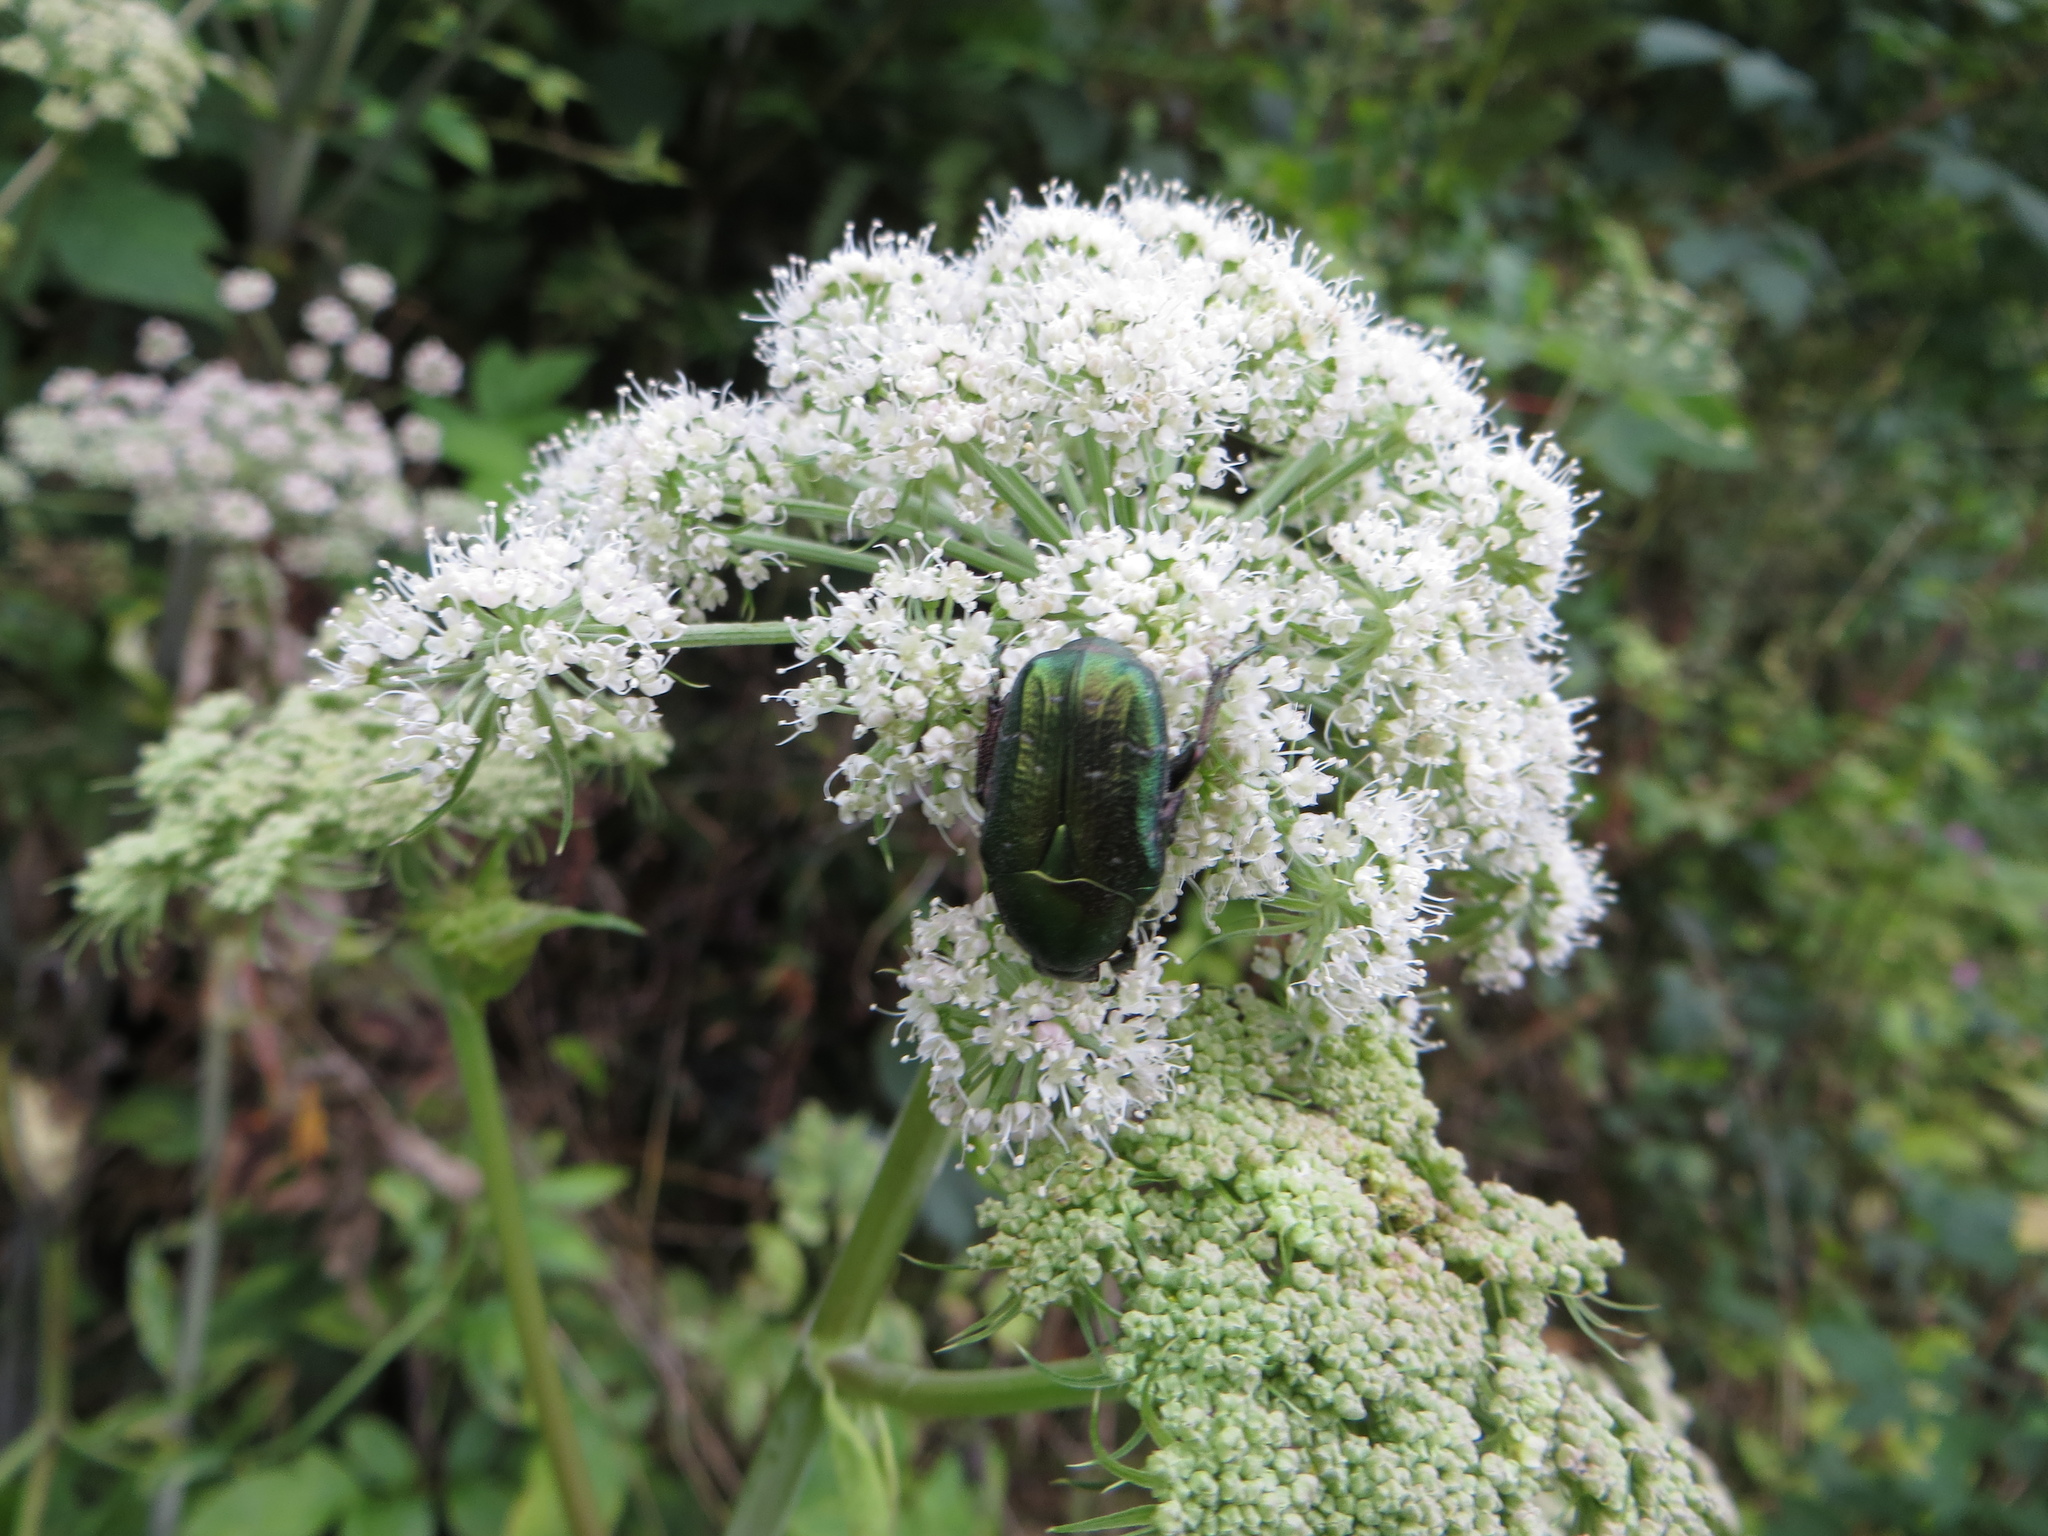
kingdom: Animalia
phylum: Arthropoda
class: Insecta
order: Coleoptera
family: Scarabaeidae
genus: Cetonia
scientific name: Cetonia aurata
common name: Rose chafer
